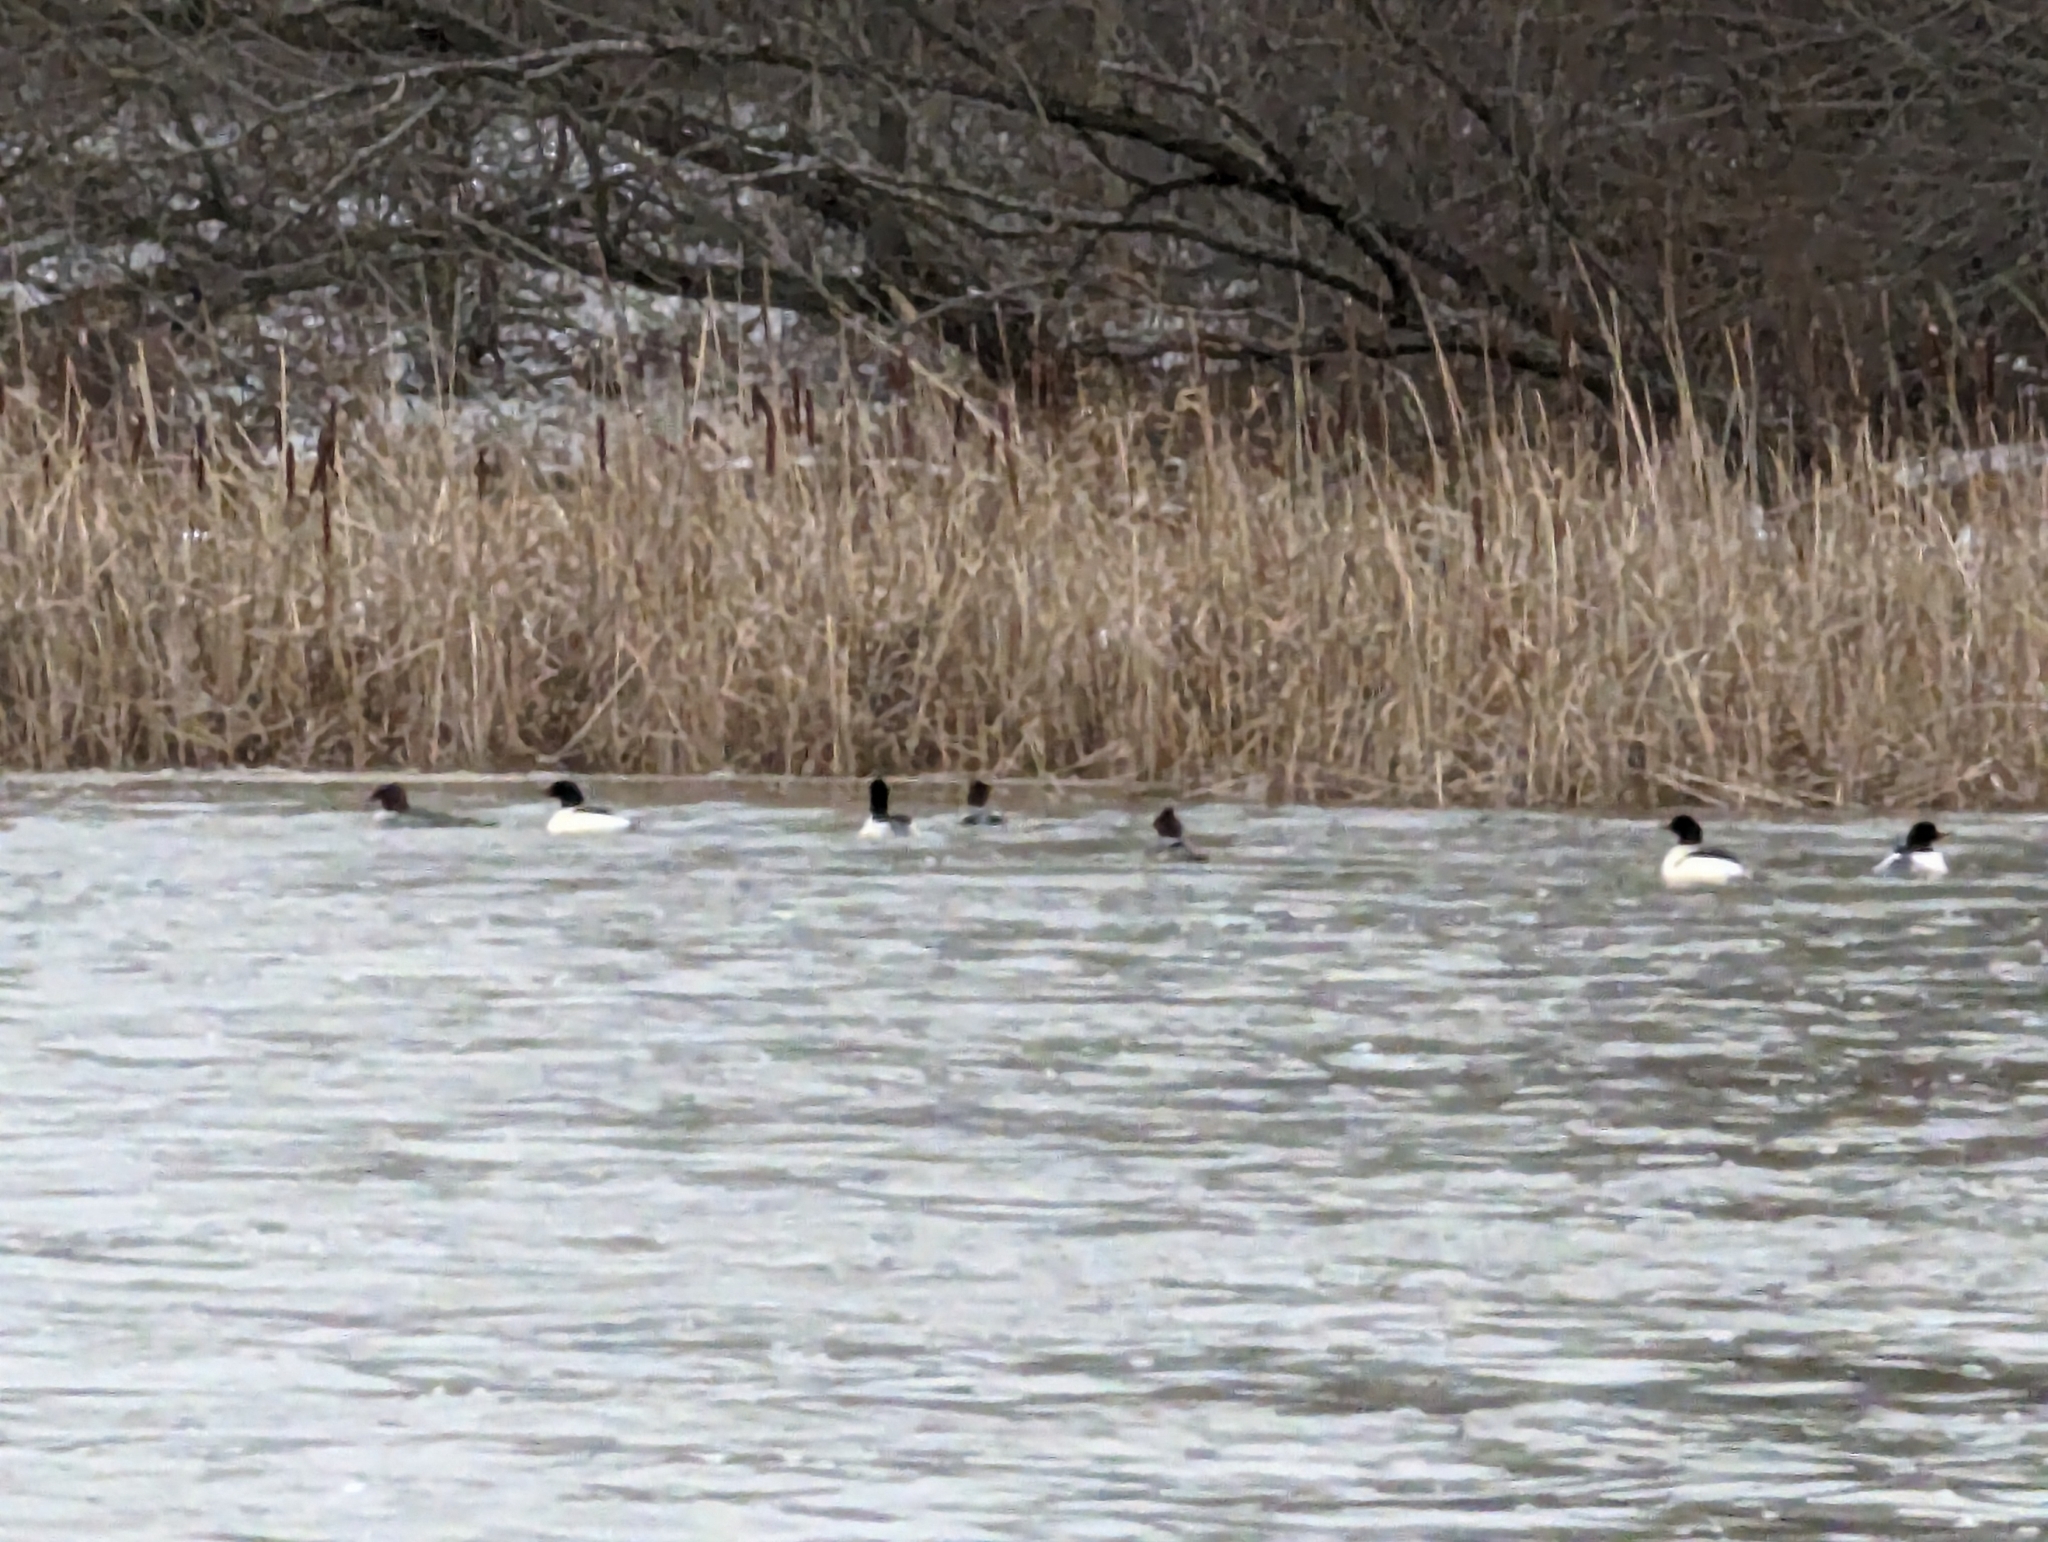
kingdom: Animalia
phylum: Chordata
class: Aves
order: Anseriformes
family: Anatidae
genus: Mergus
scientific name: Mergus merganser
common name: Common merganser
